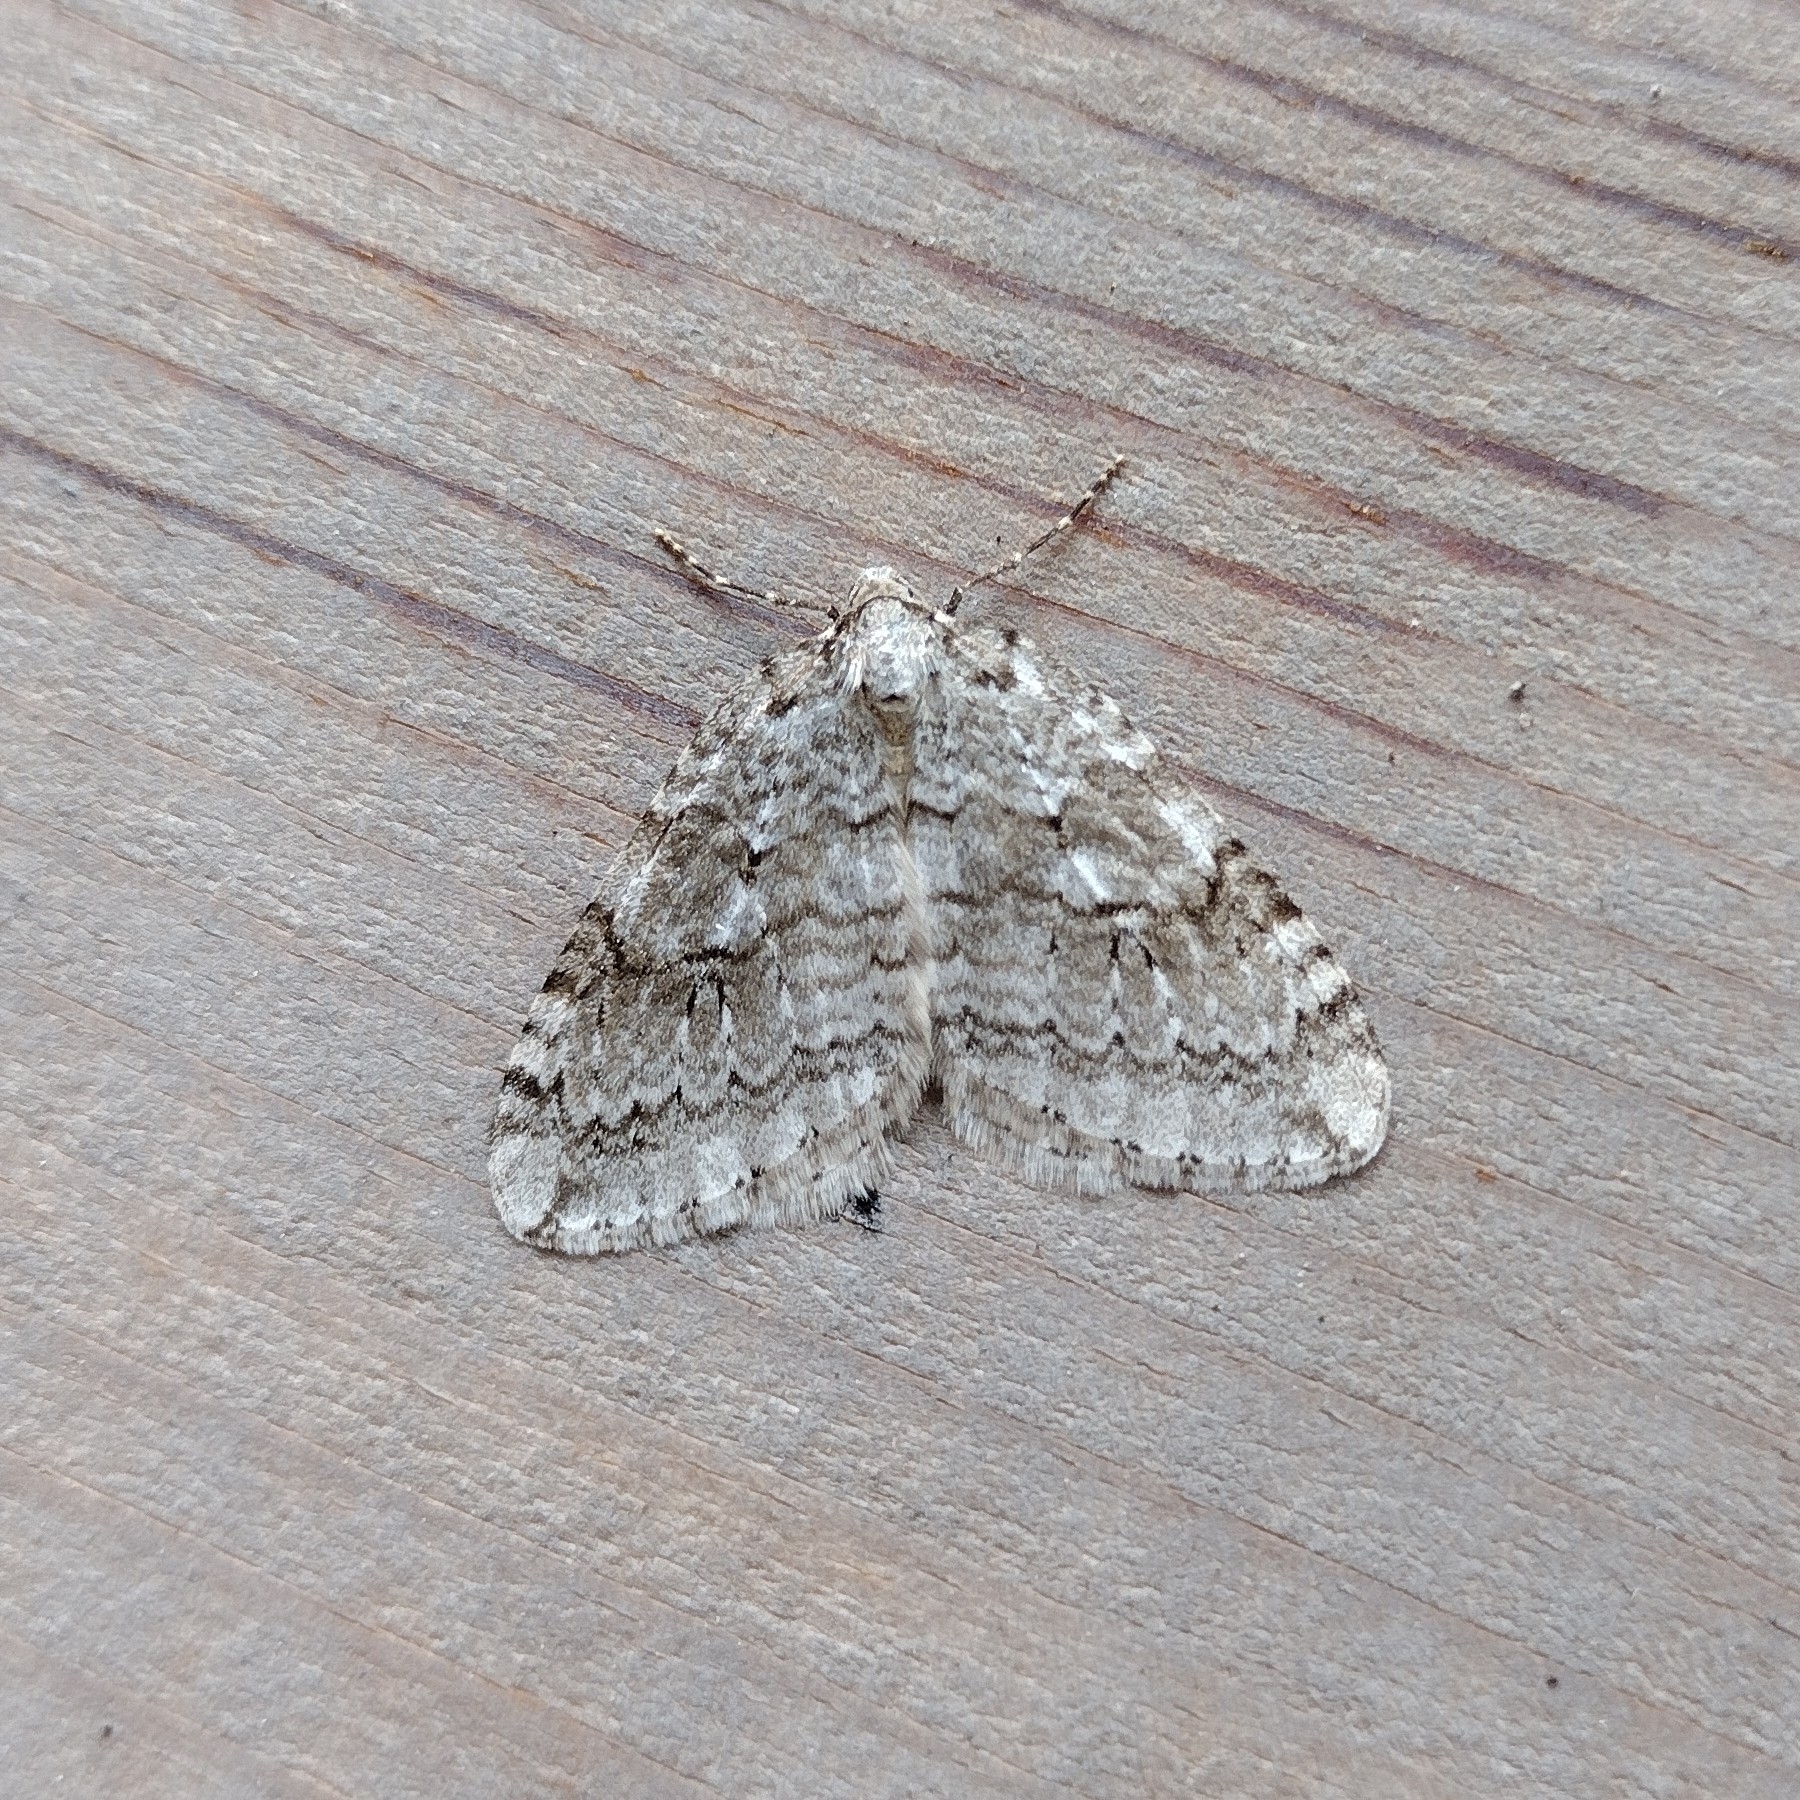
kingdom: Animalia
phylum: Arthropoda
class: Insecta
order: Lepidoptera
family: Geometridae
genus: Epirrita
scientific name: Epirrita autumnata
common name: Autumnal moth
